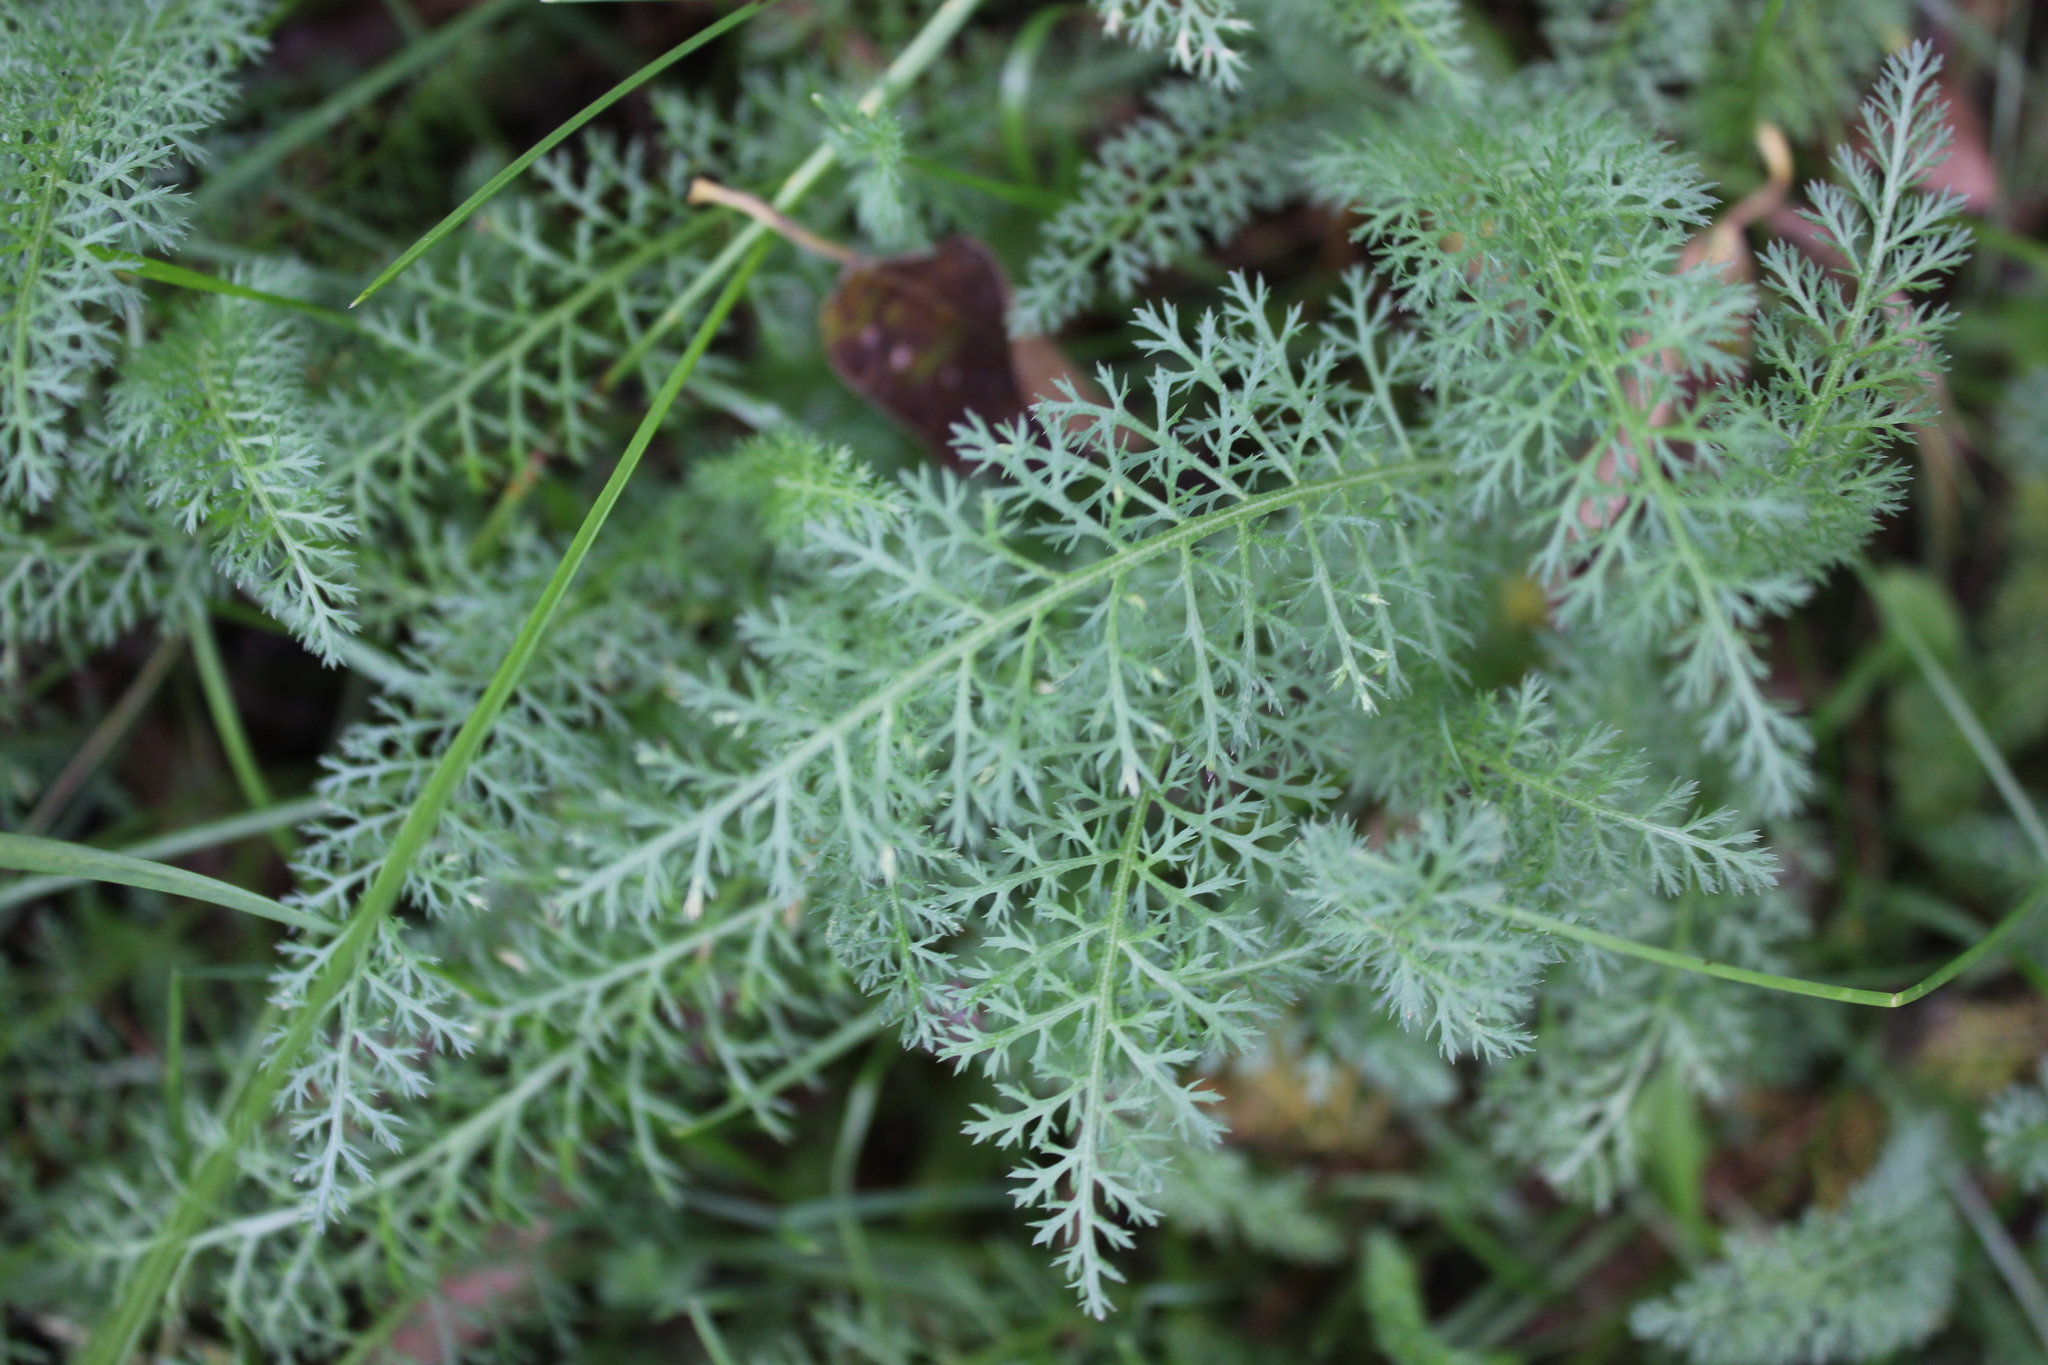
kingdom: Plantae
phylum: Tracheophyta
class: Magnoliopsida
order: Asterales
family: Asteraceae
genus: Achillea
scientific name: Achillea millefolium
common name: Yarrow
